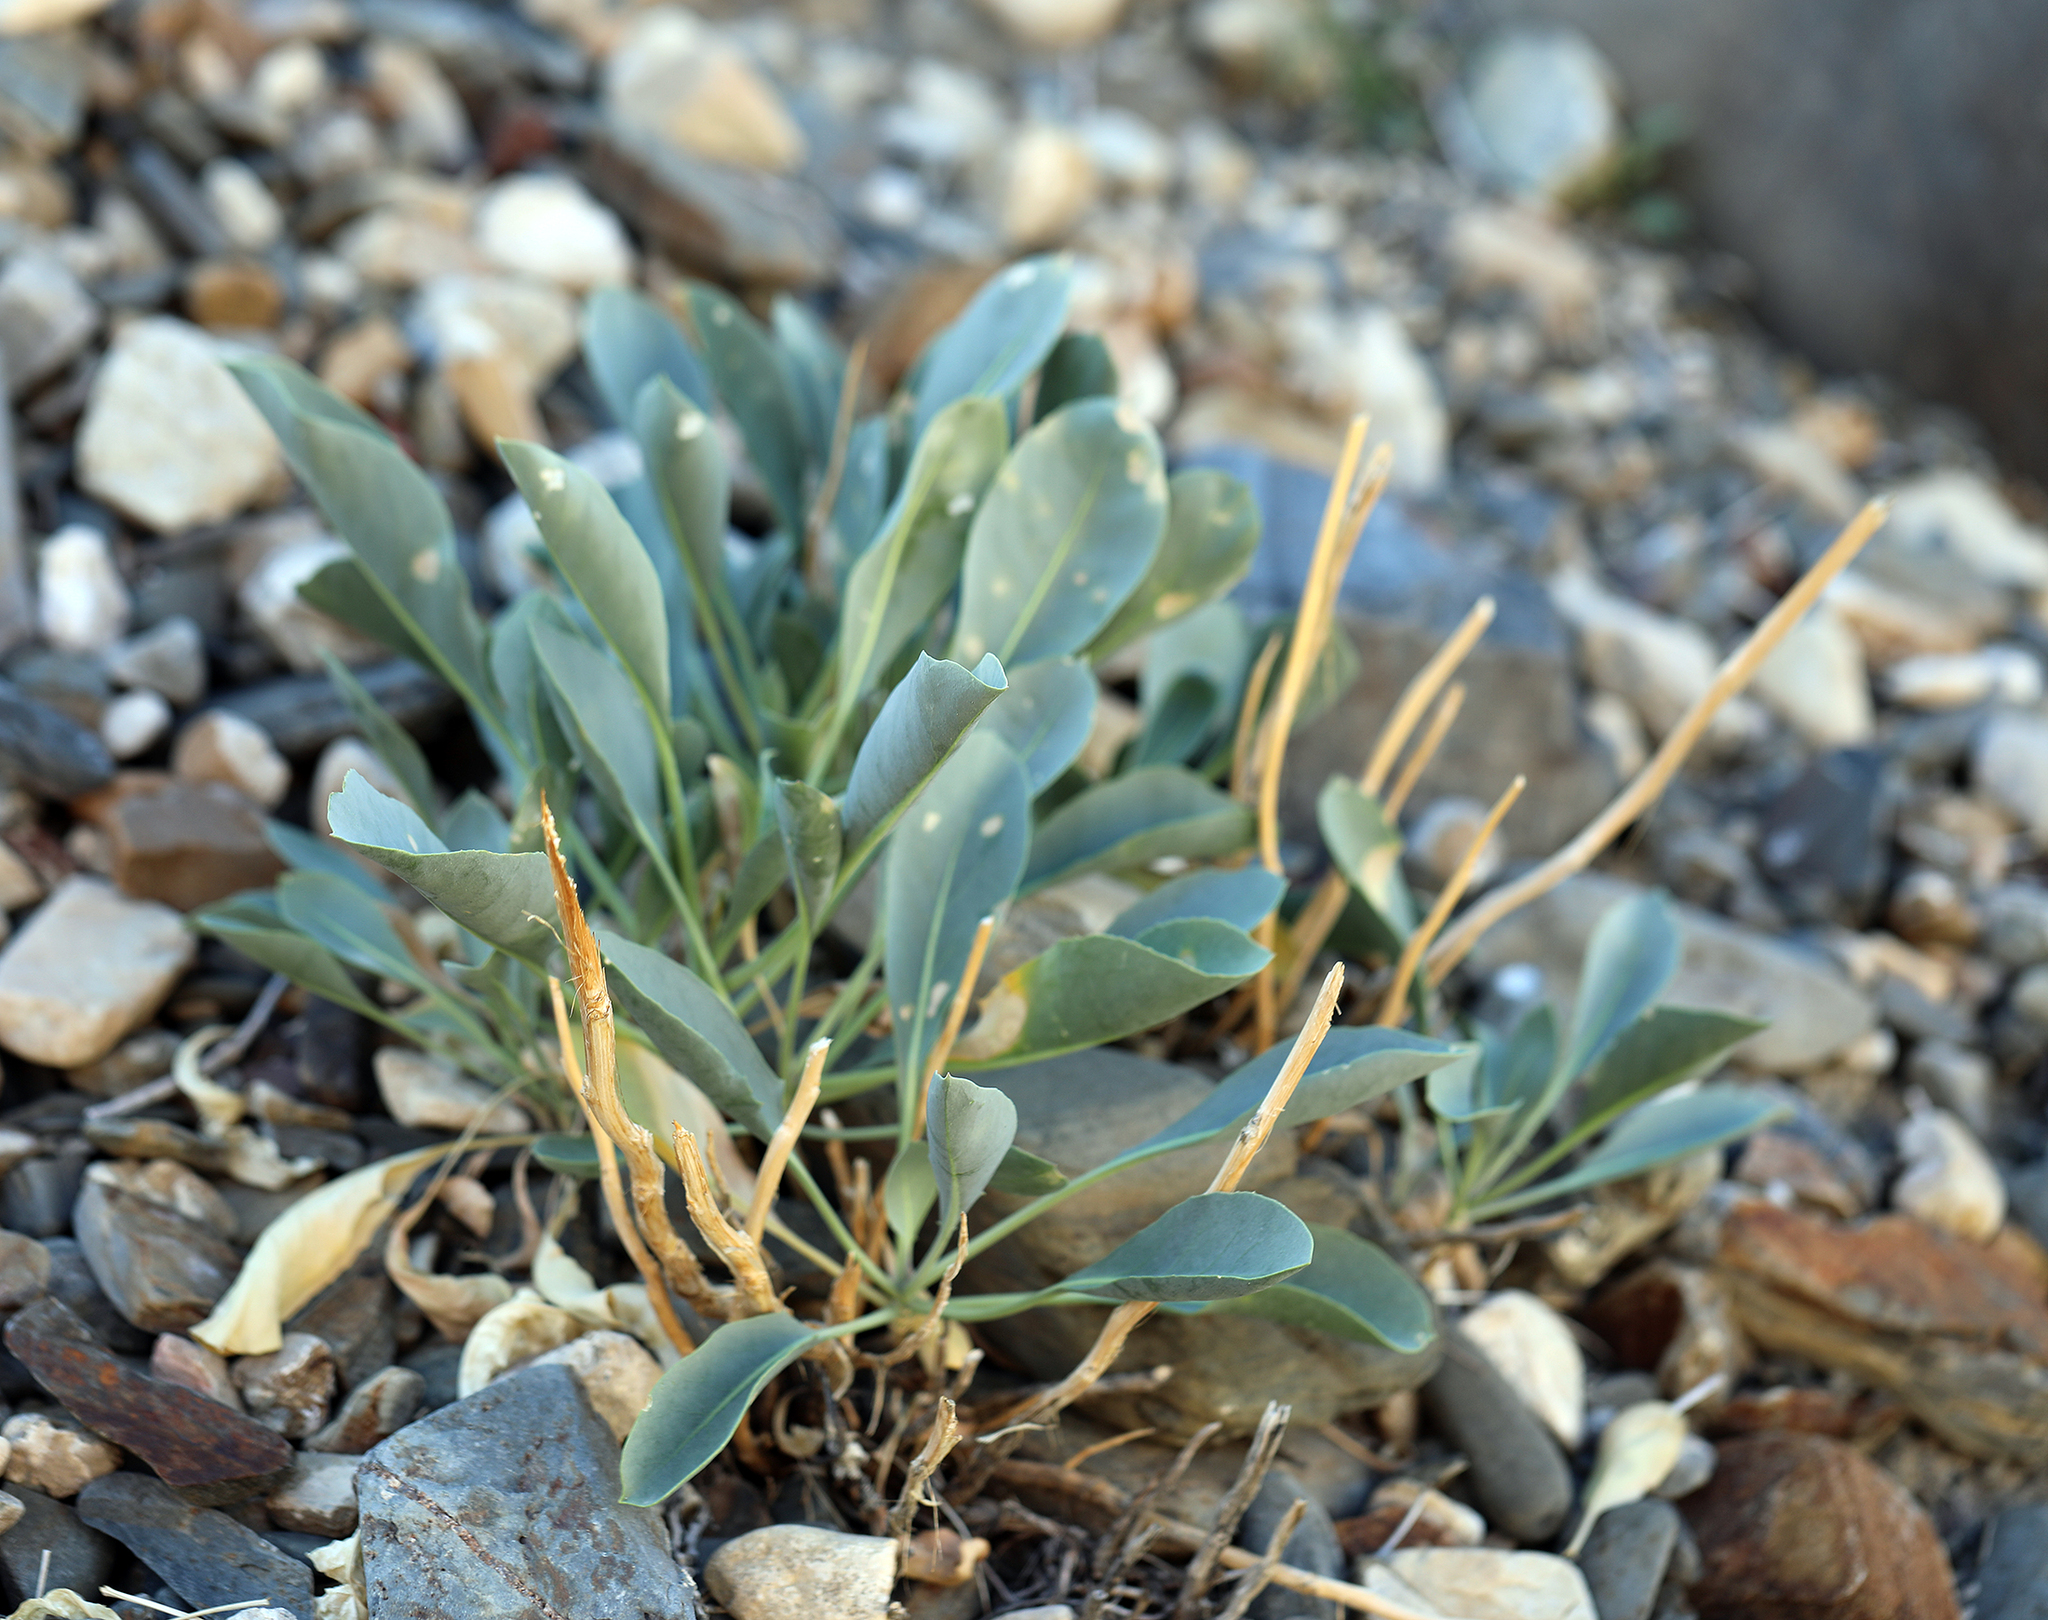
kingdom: Plantae
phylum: Tracheophyta
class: Magnoliopsida
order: Brassicales
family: Brassicaceae
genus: Stanleya
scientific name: Stanleya elata
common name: Panamint prince's plume
